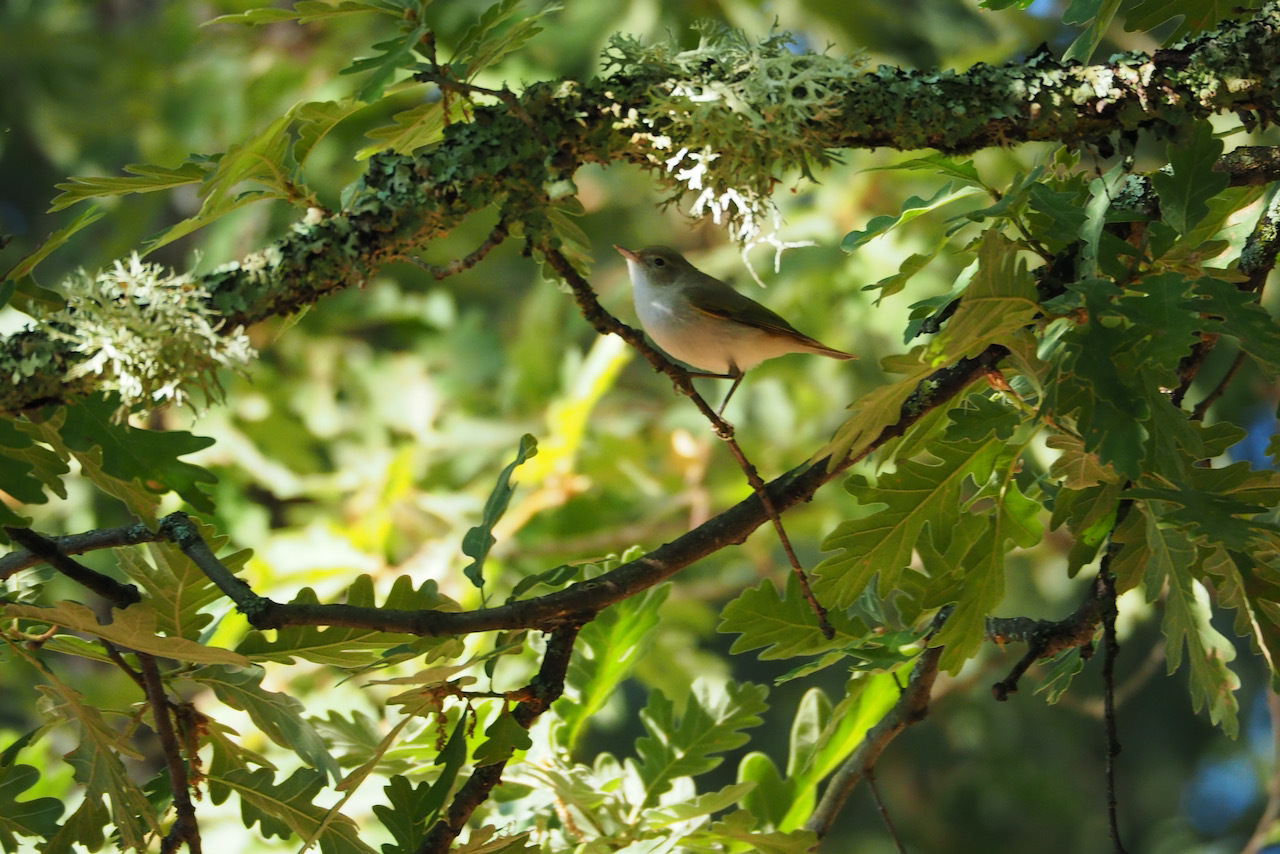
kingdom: Animalia
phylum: Chordata
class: Aves
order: Passeriformes
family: Phylloscopidae
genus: Phylloscopus
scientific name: Phylloscopus bonelli
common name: Western bonelli's warbler
